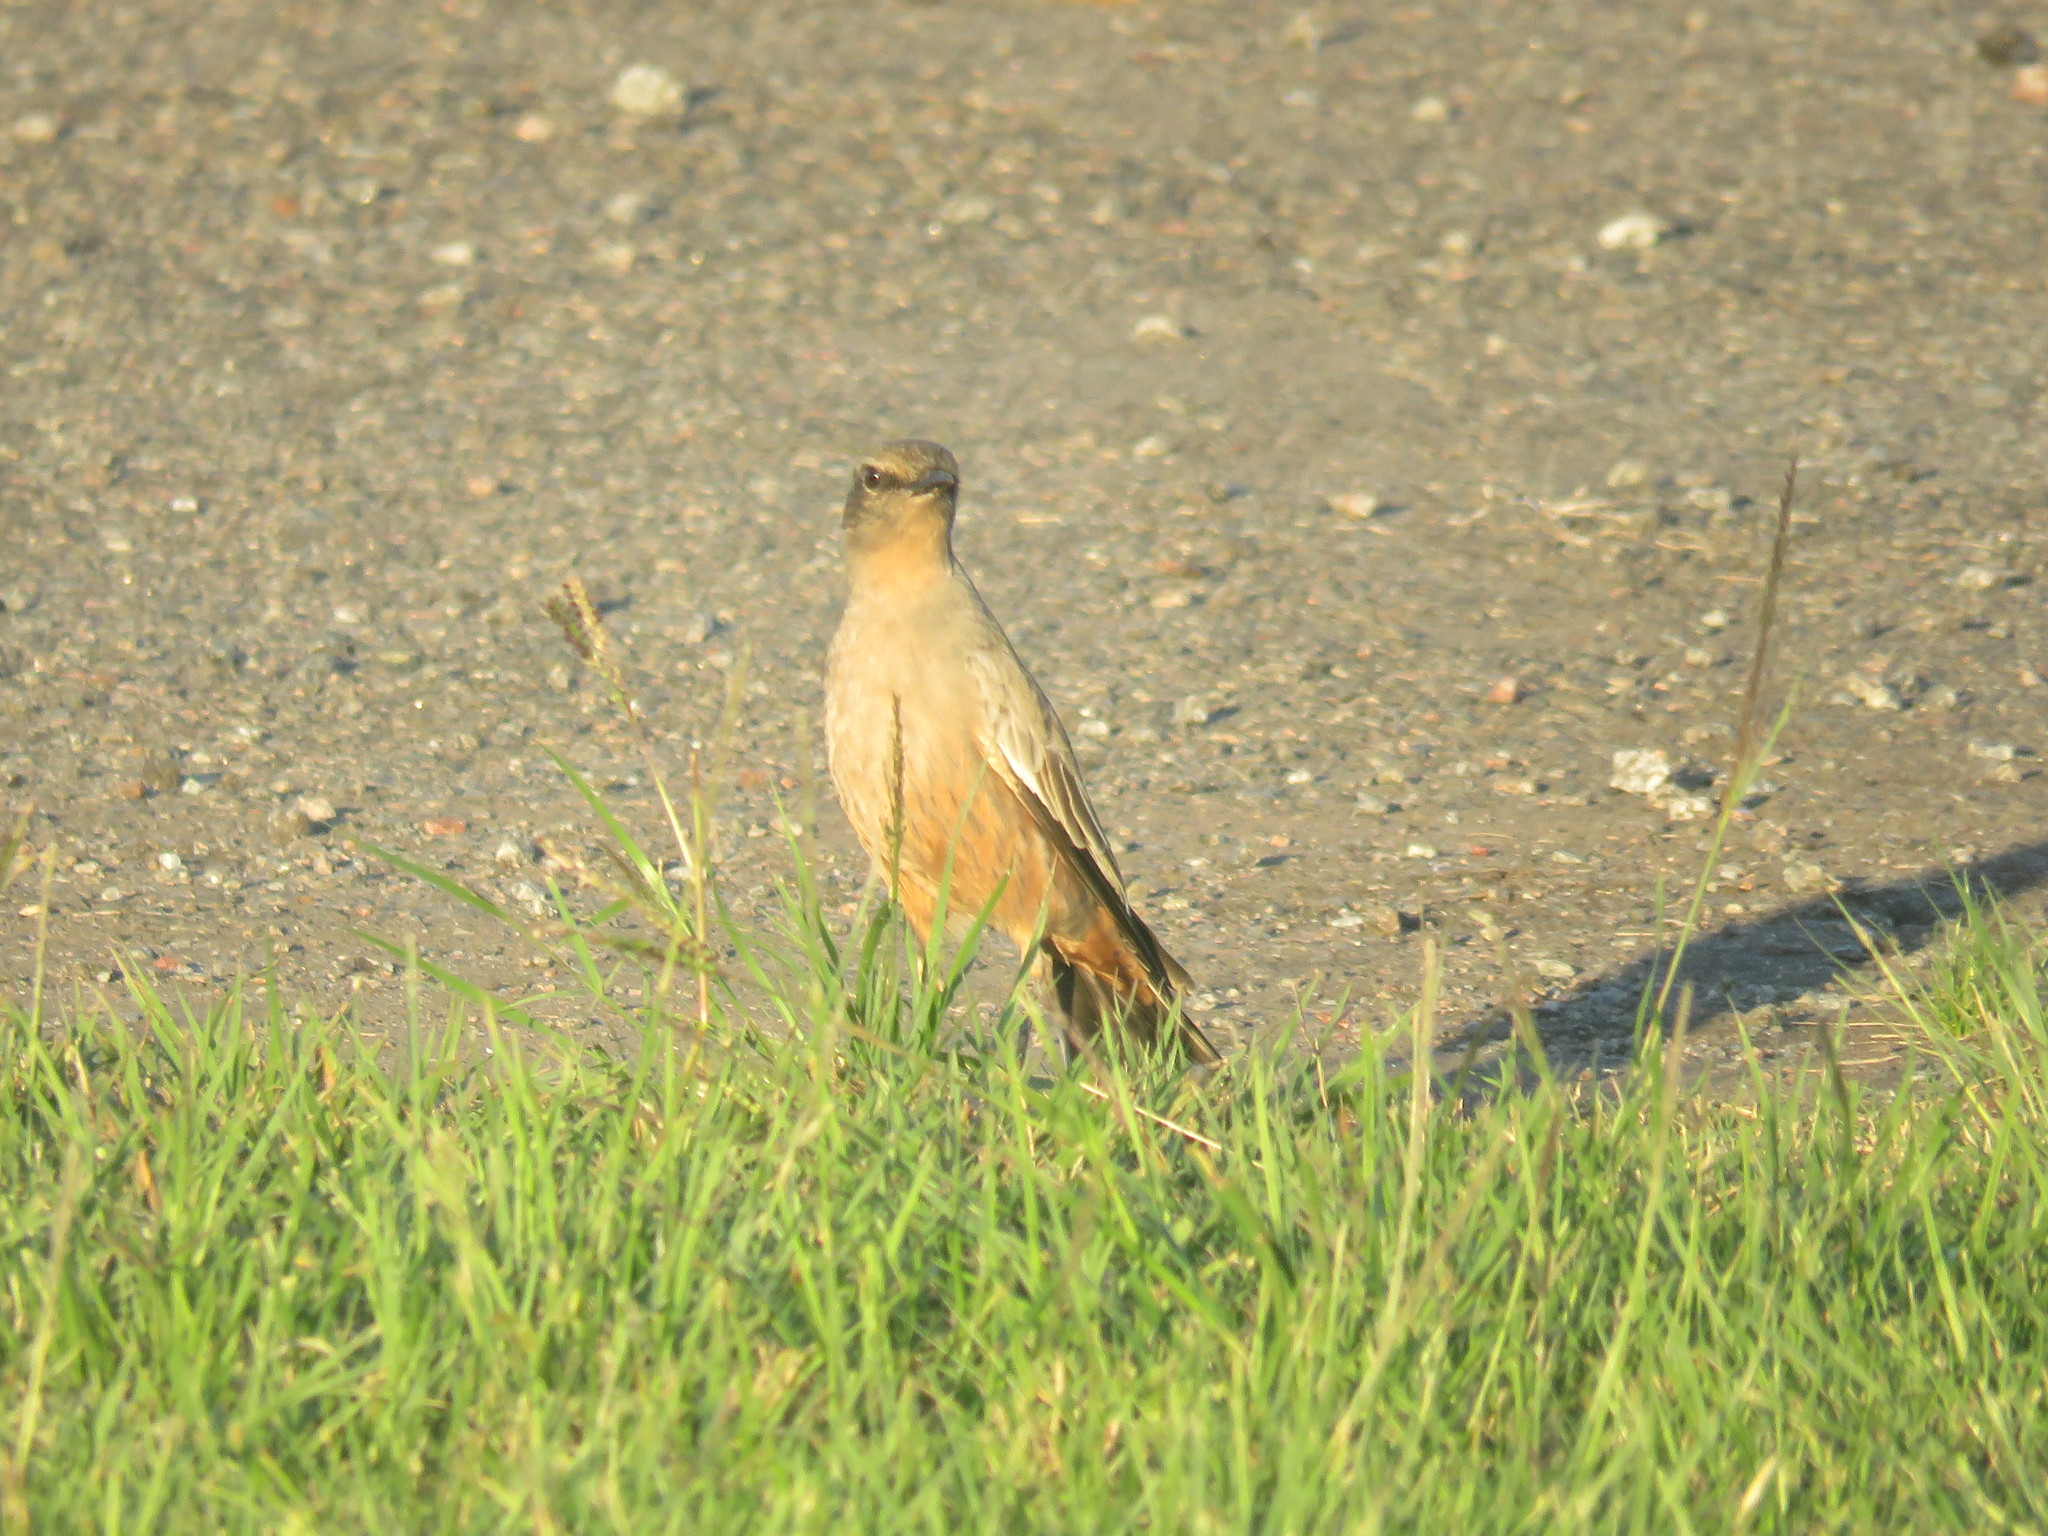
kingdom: Animalia
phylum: Chordata
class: Aves
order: Passeriformes
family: Tyrannidae
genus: Neoxolmis
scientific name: Neoxolmis rufiventris
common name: Chocolate-vented tyrant
